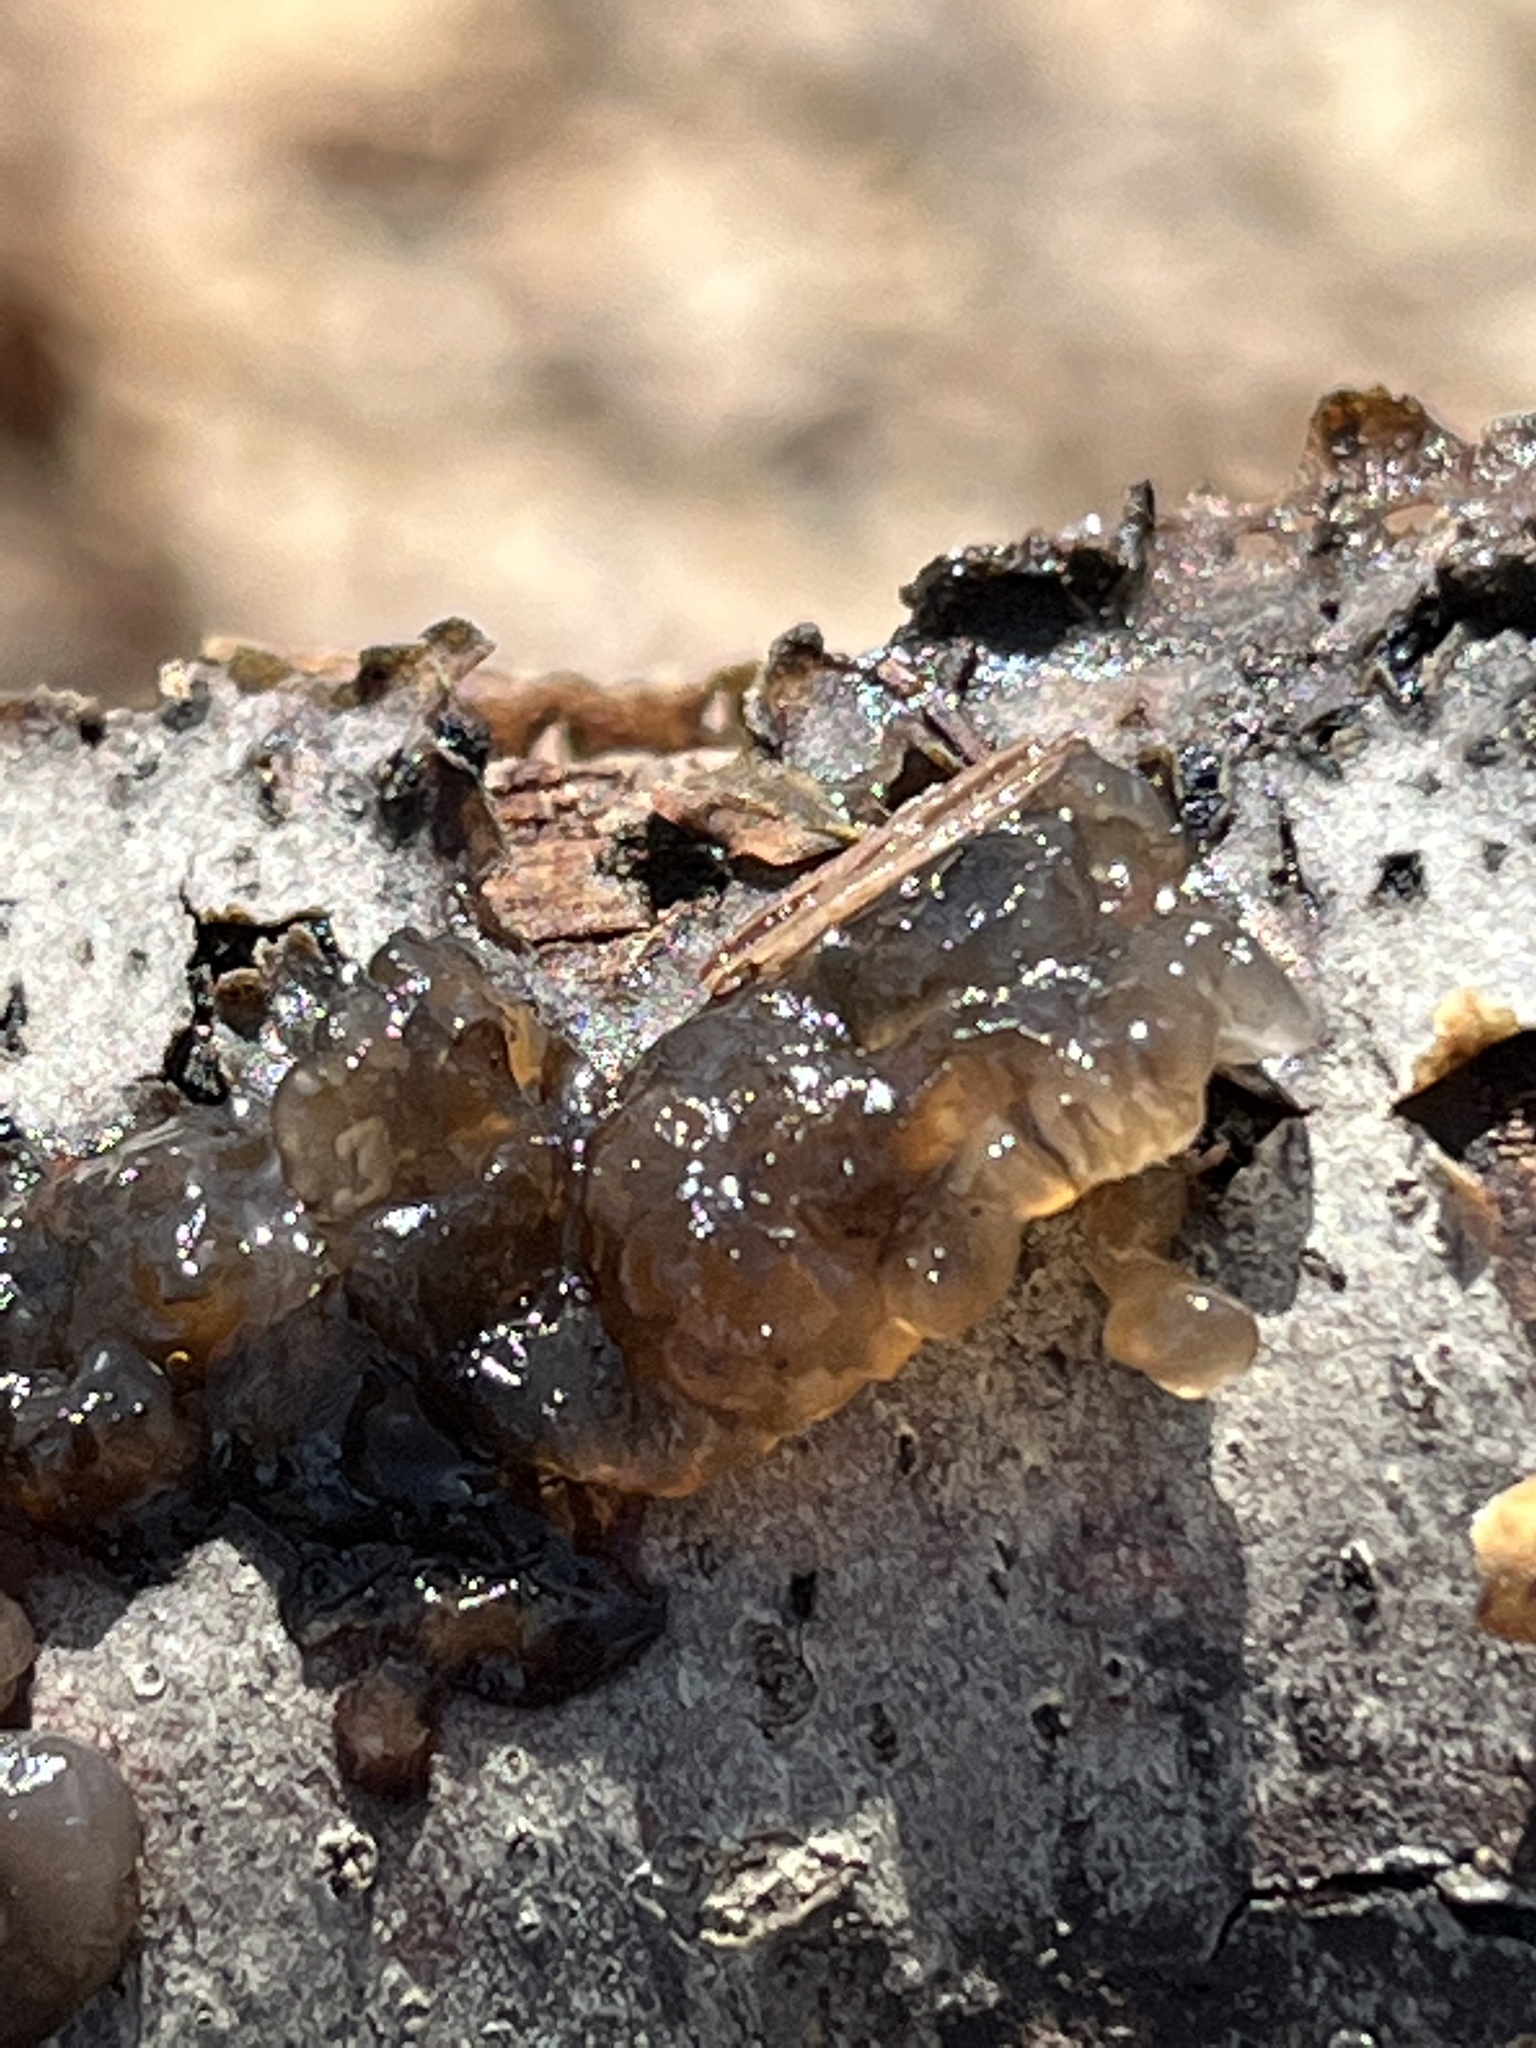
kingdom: Fungi
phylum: Basidiomycota
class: Agaricomycetes
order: Auriculariales
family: Hyaloriaceae
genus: Myxarium
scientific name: Myxarium nucleatum
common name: Crystal brain fungus
